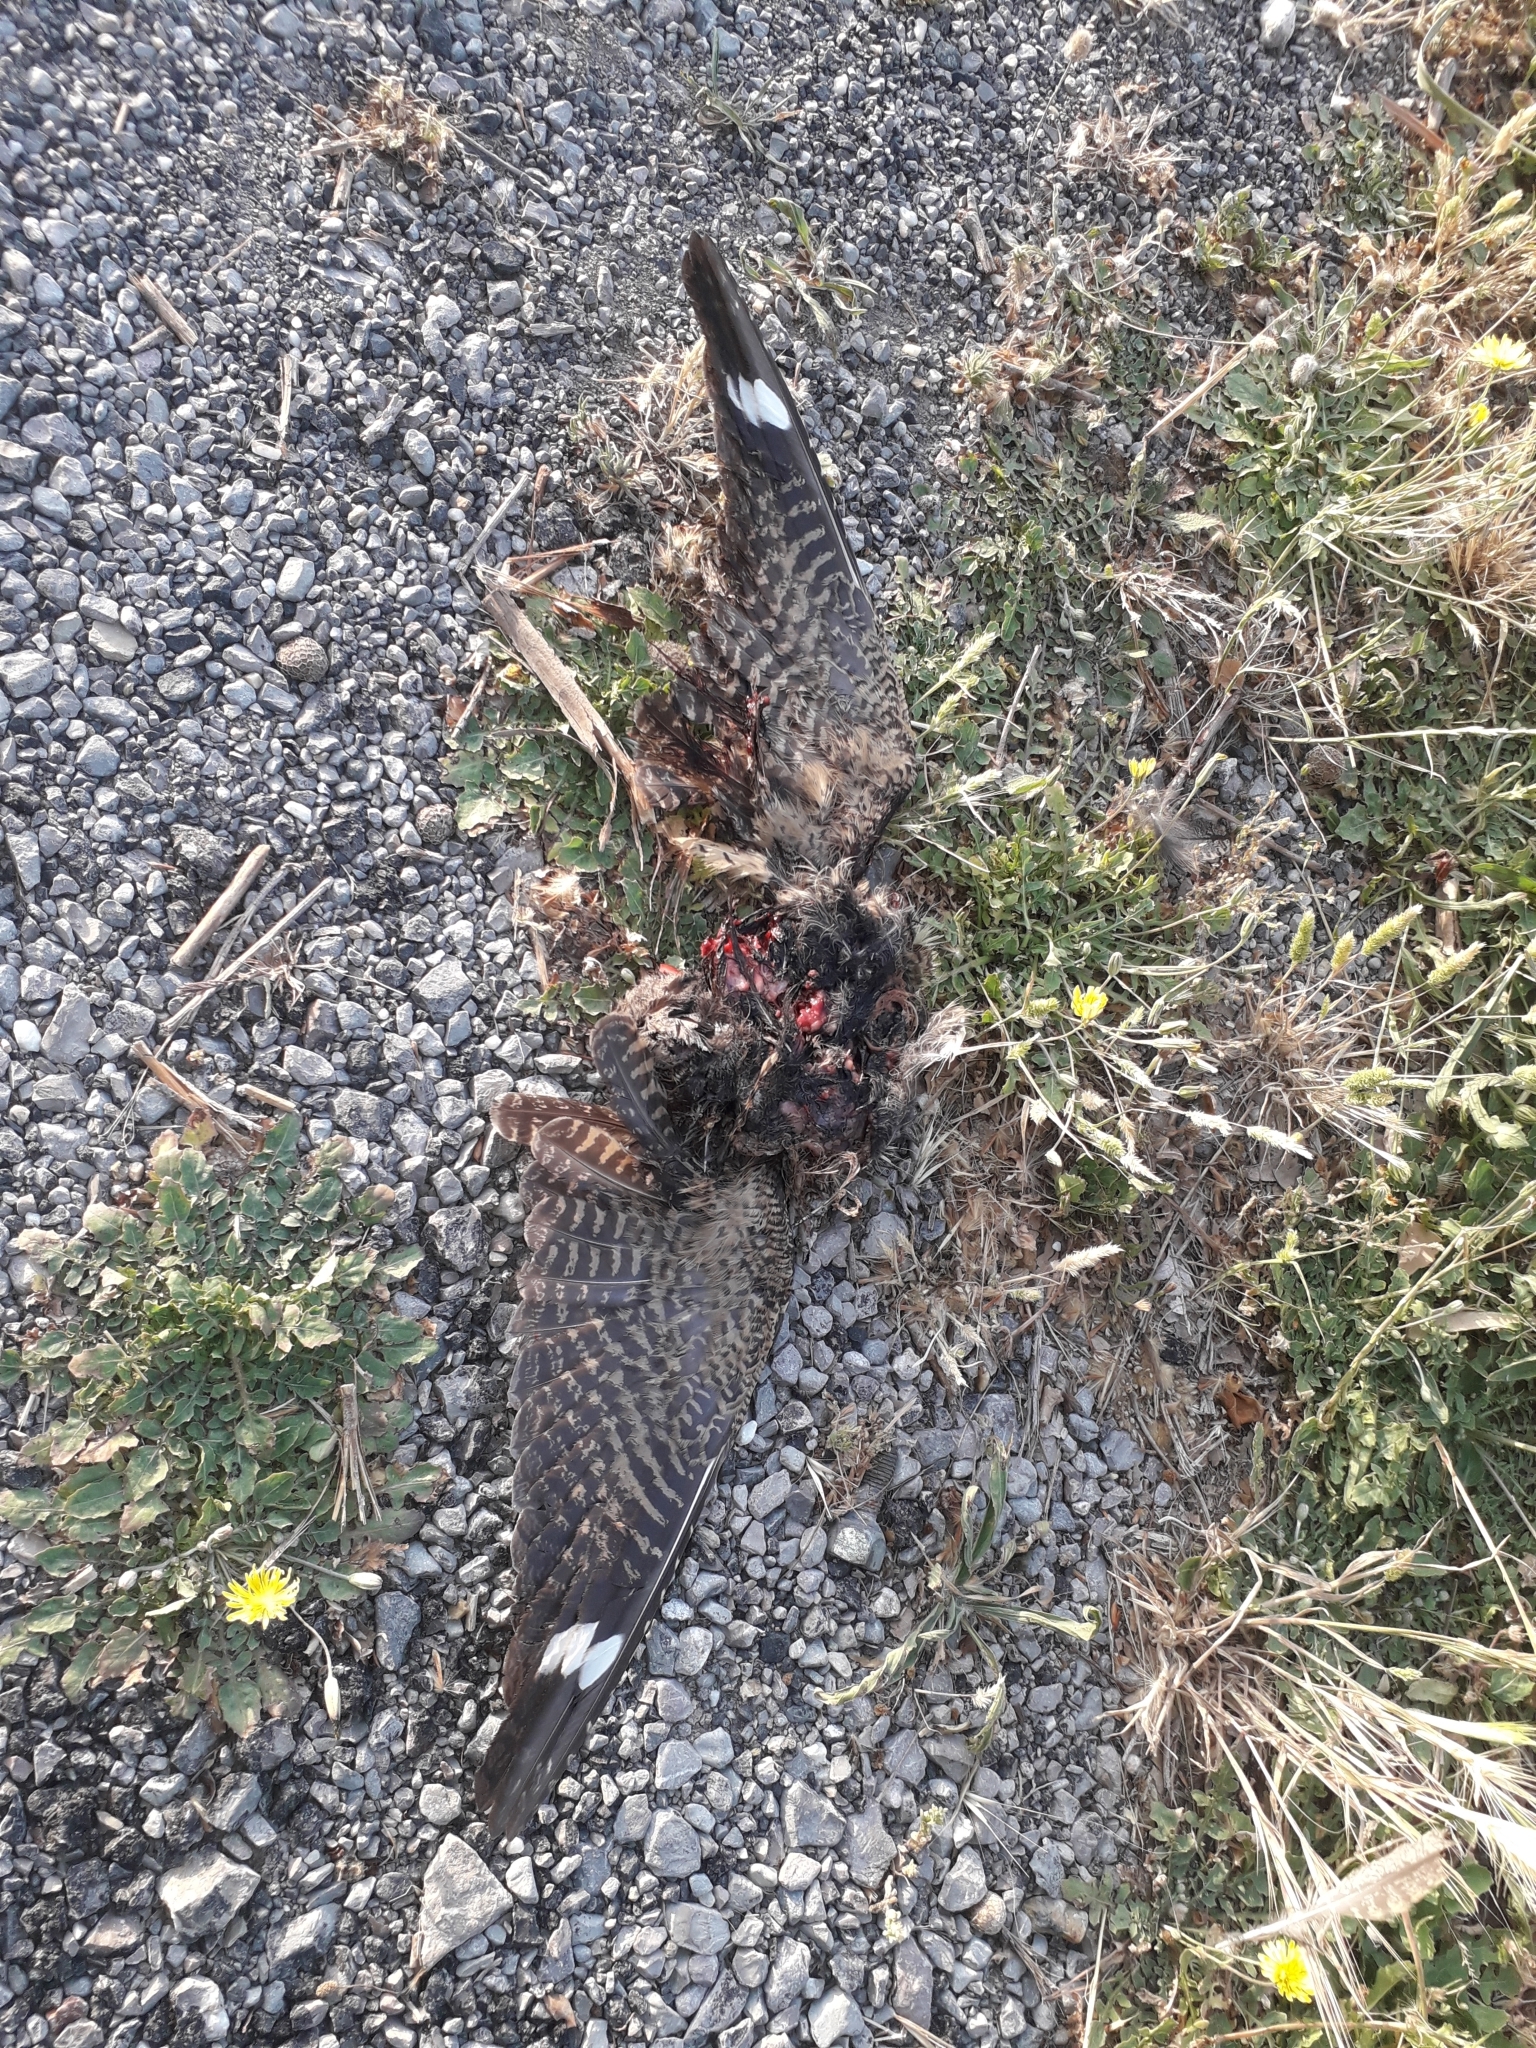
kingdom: Animalia
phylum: Chordata
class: Aves
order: Caprimulgiformes
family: Caprimulgidae
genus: Caprimulgus
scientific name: Caprimulgus europaeus
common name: European nightjar
